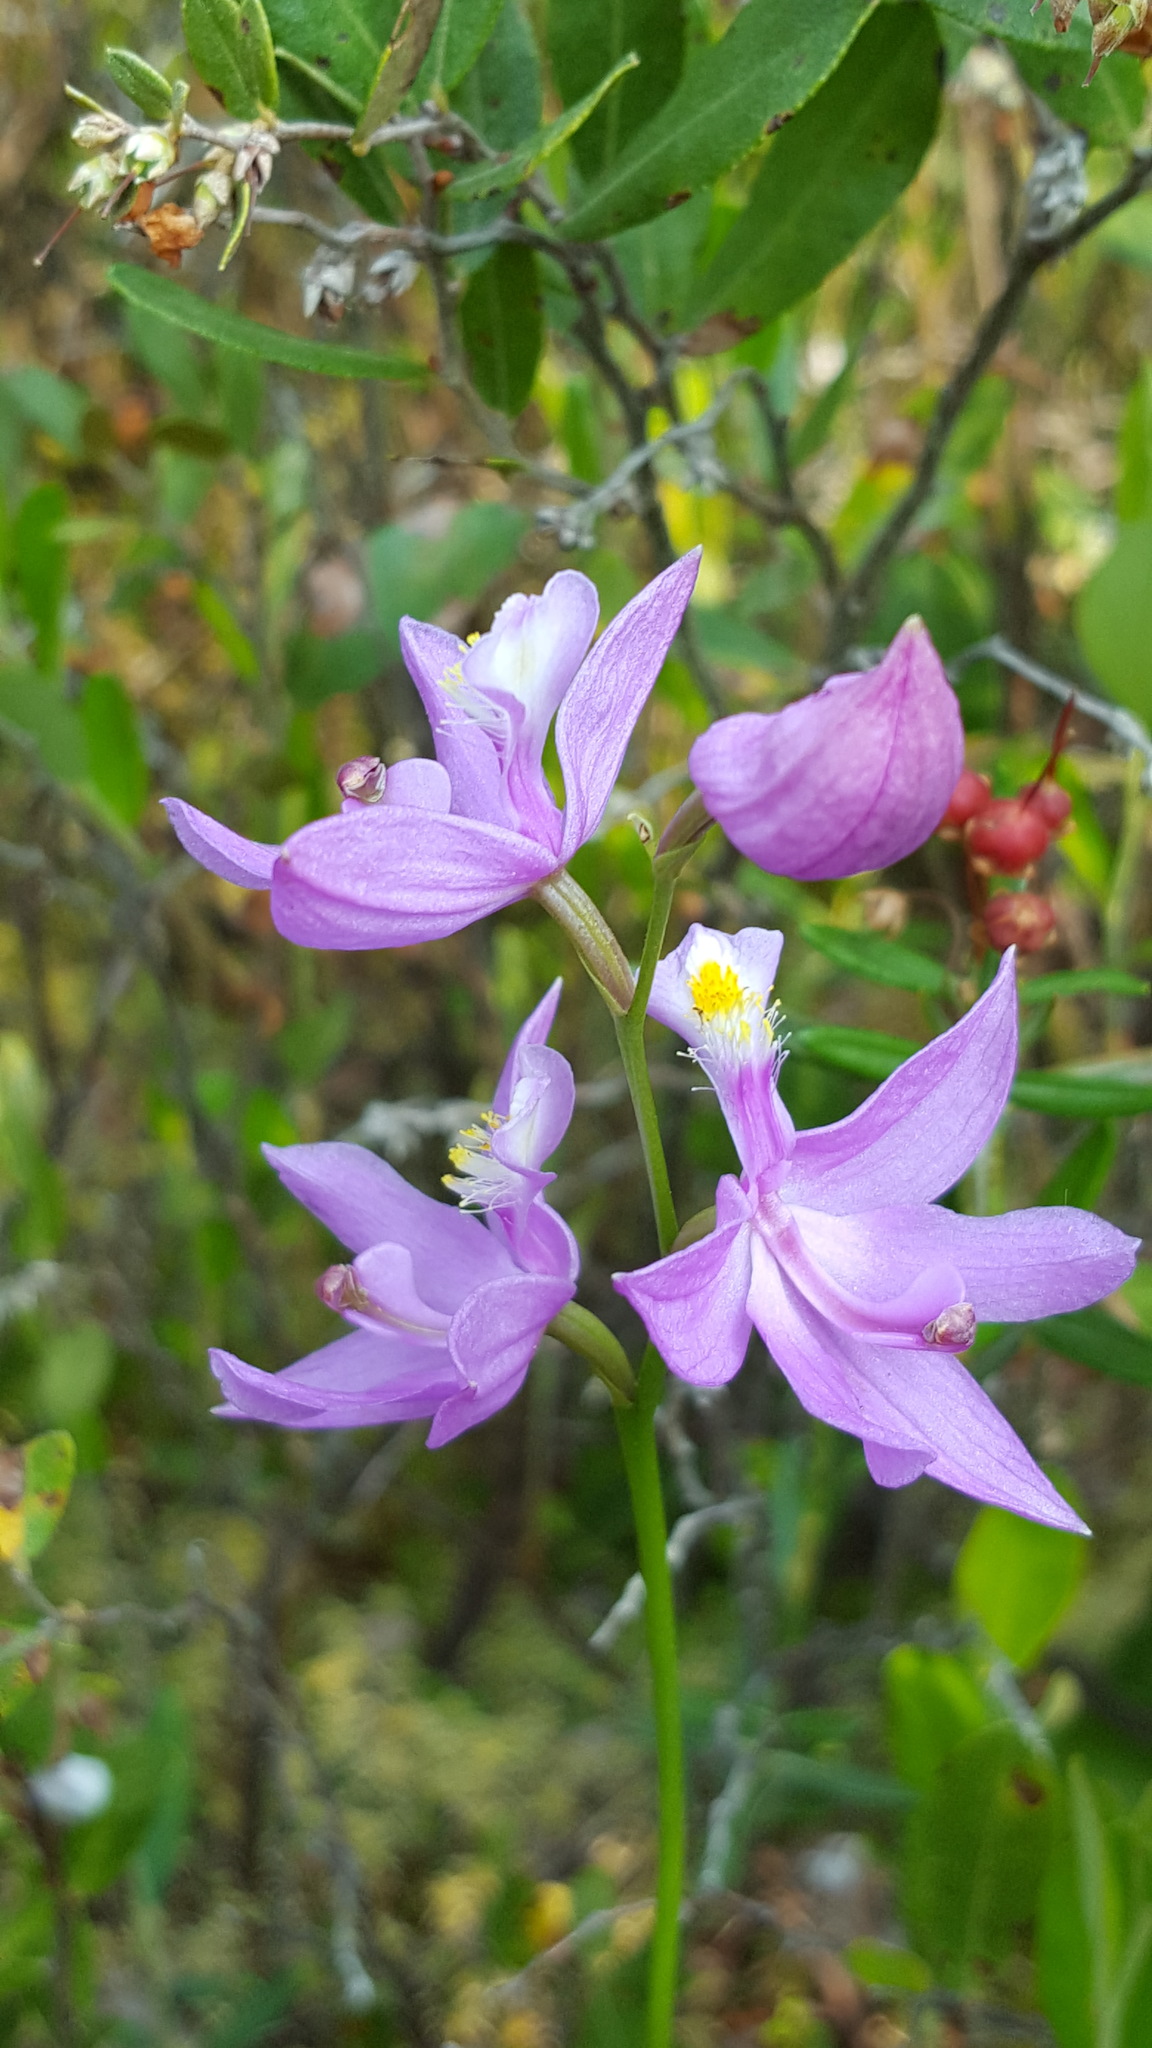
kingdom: Plantae
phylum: Tracheophyta
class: Liliopsida
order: Asparagales
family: Orchidaceae
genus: Calopogon
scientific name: Calopogon tuberosus
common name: Grass-pink
